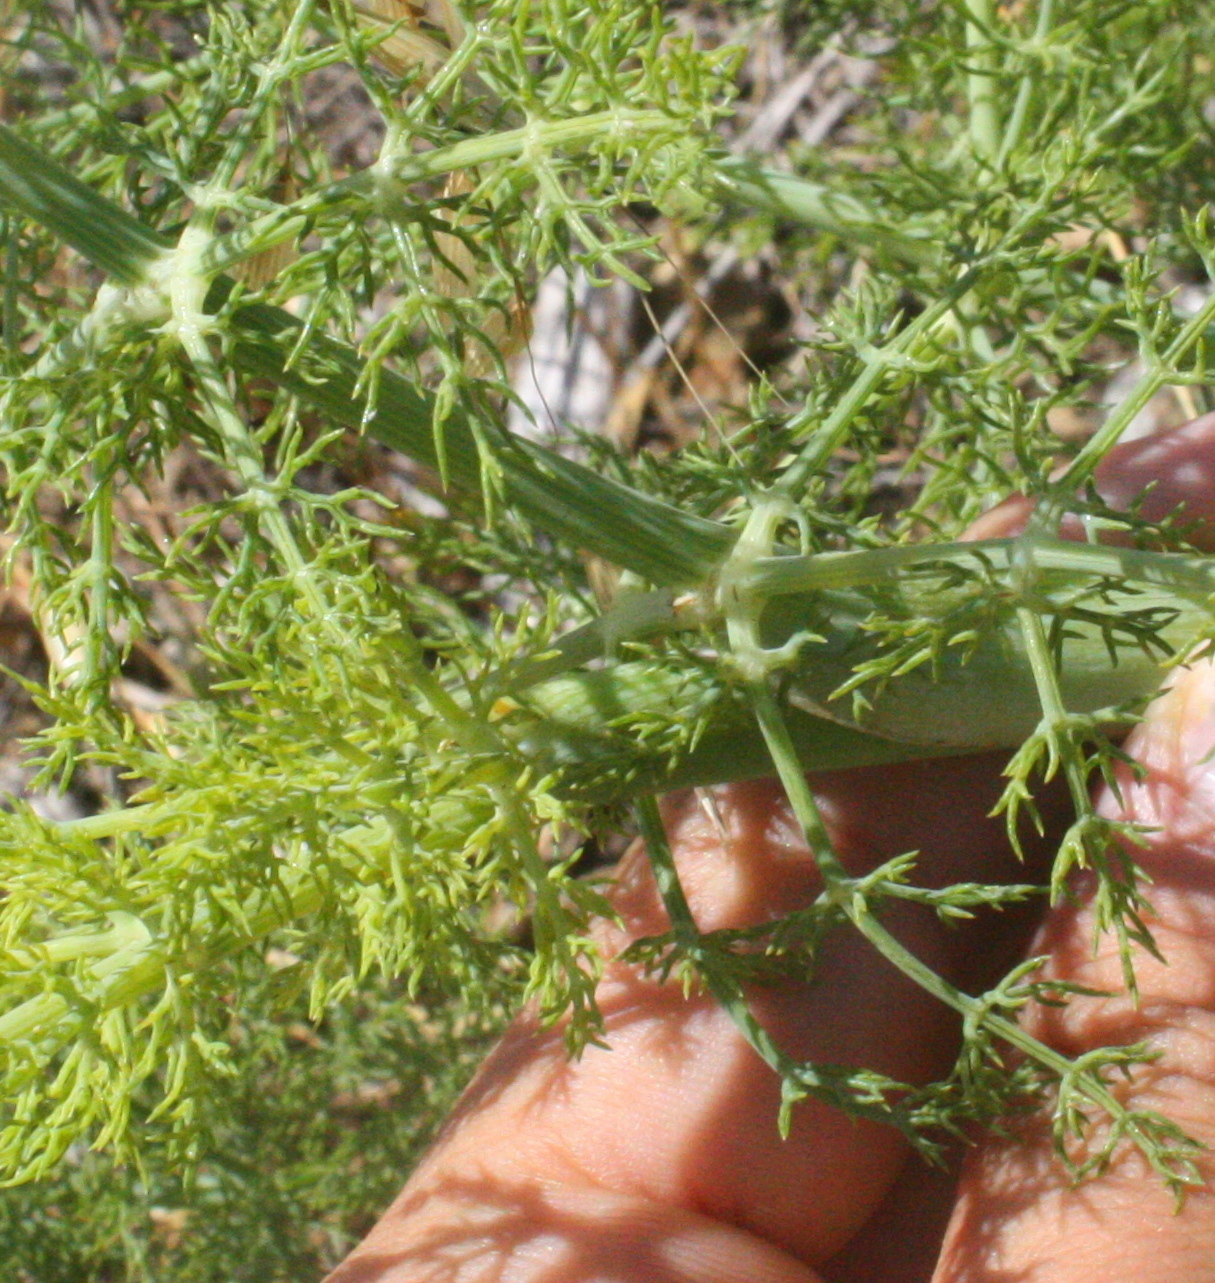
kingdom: Plantae
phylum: Tracheophyta
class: Magnoliopsida
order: Apiales
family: Apiaceae
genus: Foeniculum
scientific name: Foeniculum vulgare
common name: Fennel
